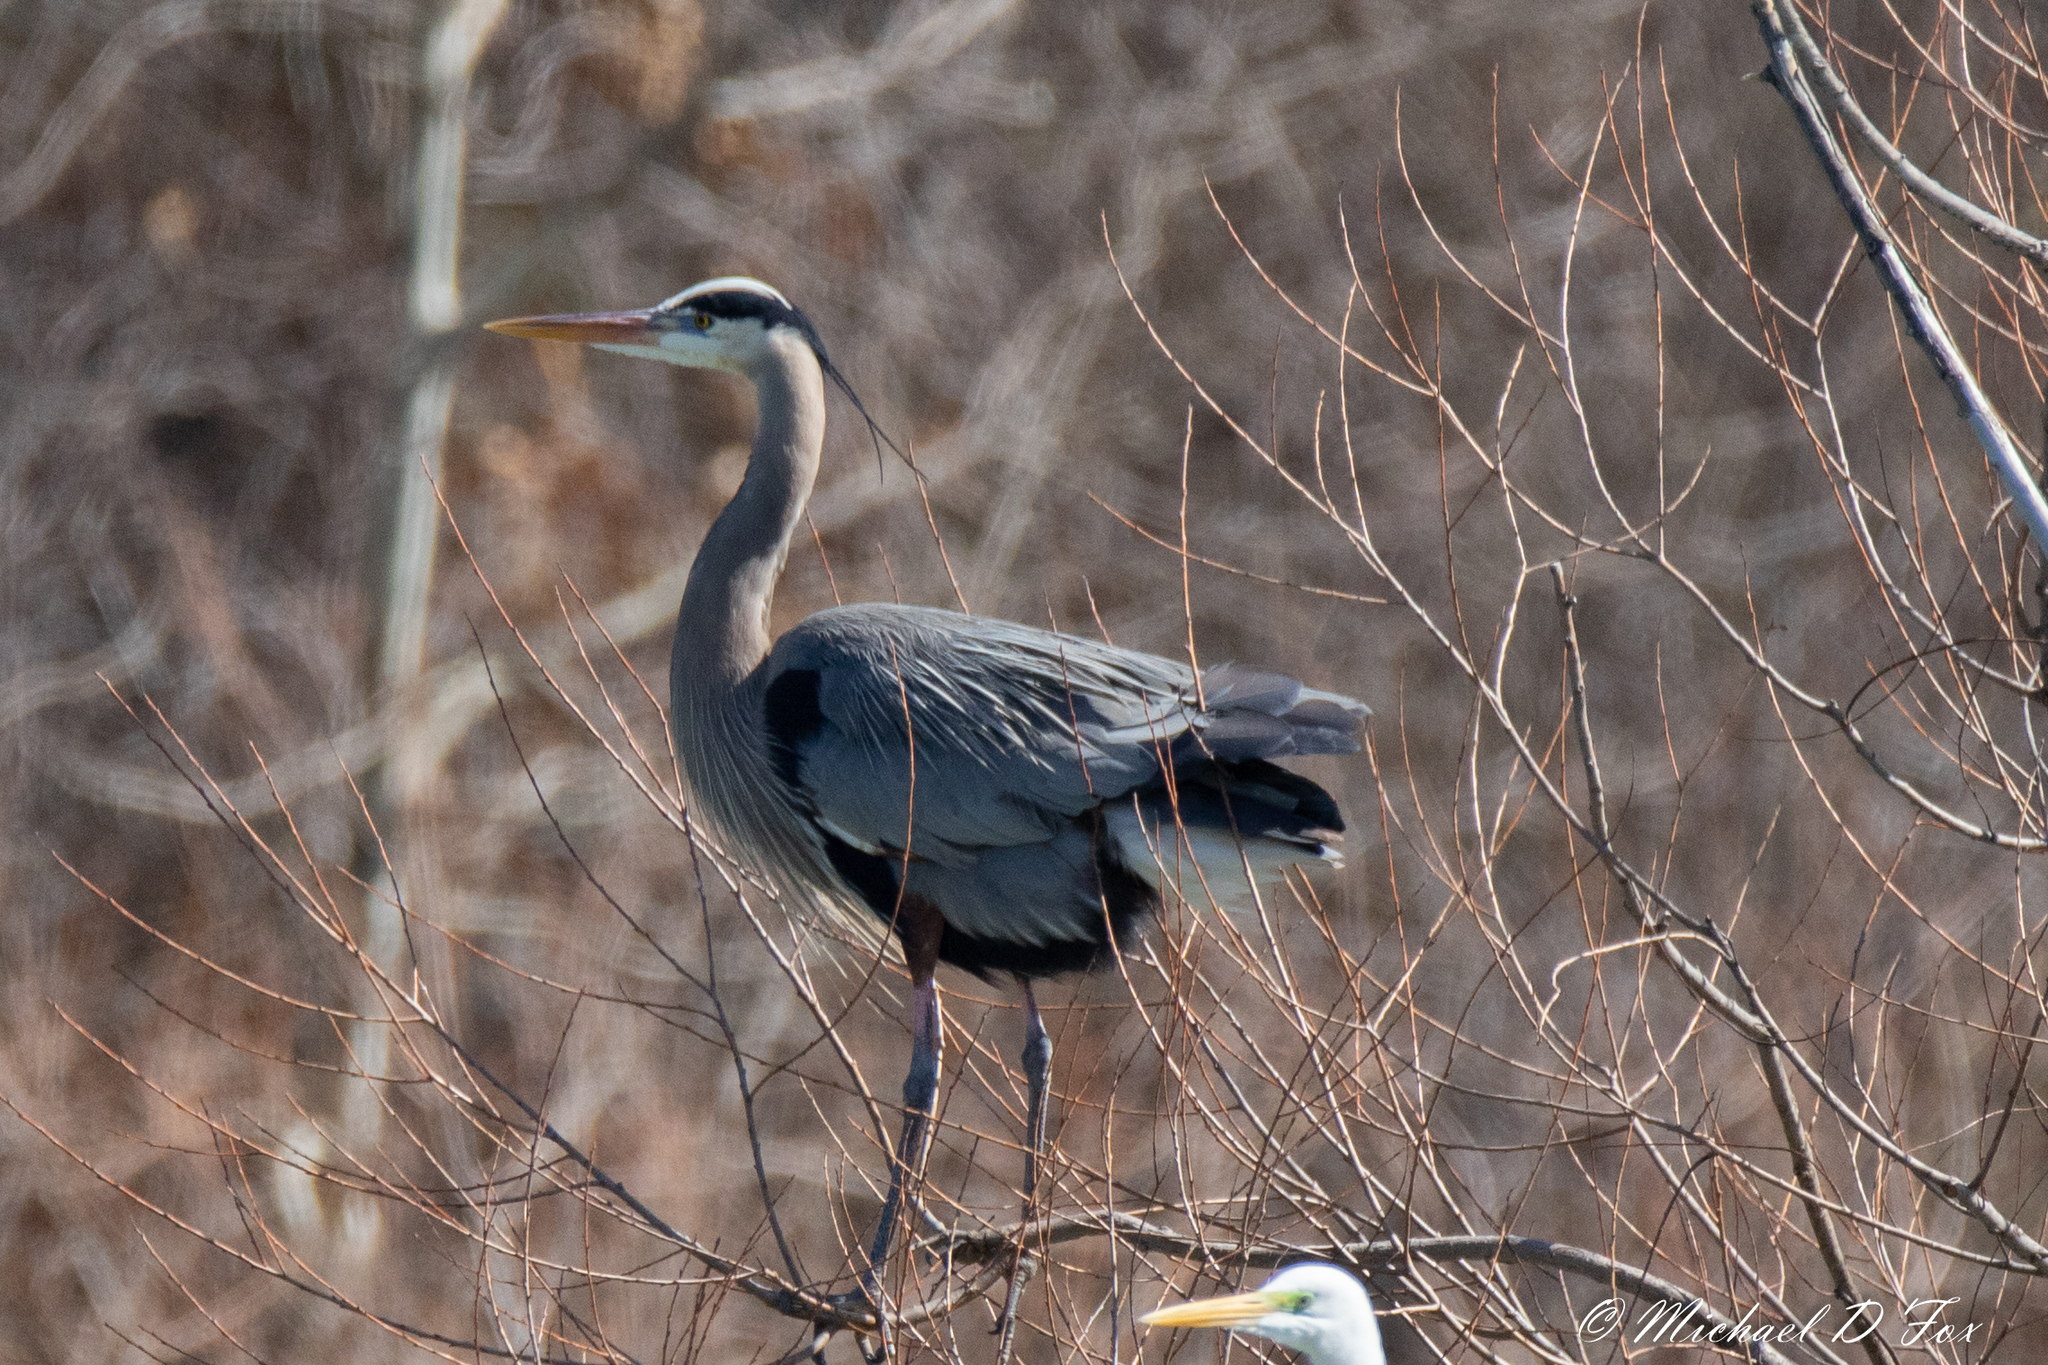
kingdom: Animalia
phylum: Chordata
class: Aves
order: Pelecaniformes
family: Ardeidae
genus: Ardea
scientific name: Ardea herodias
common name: Great blue heron
